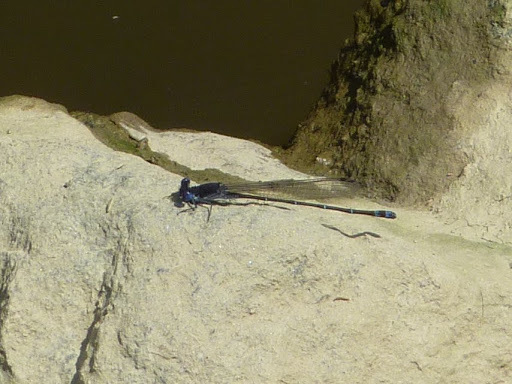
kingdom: Animalia
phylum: Arthropoda
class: Insecta
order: Odonata
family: Coenagrionidae
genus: Argia
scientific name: Argia translata
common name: Dusky dancer
